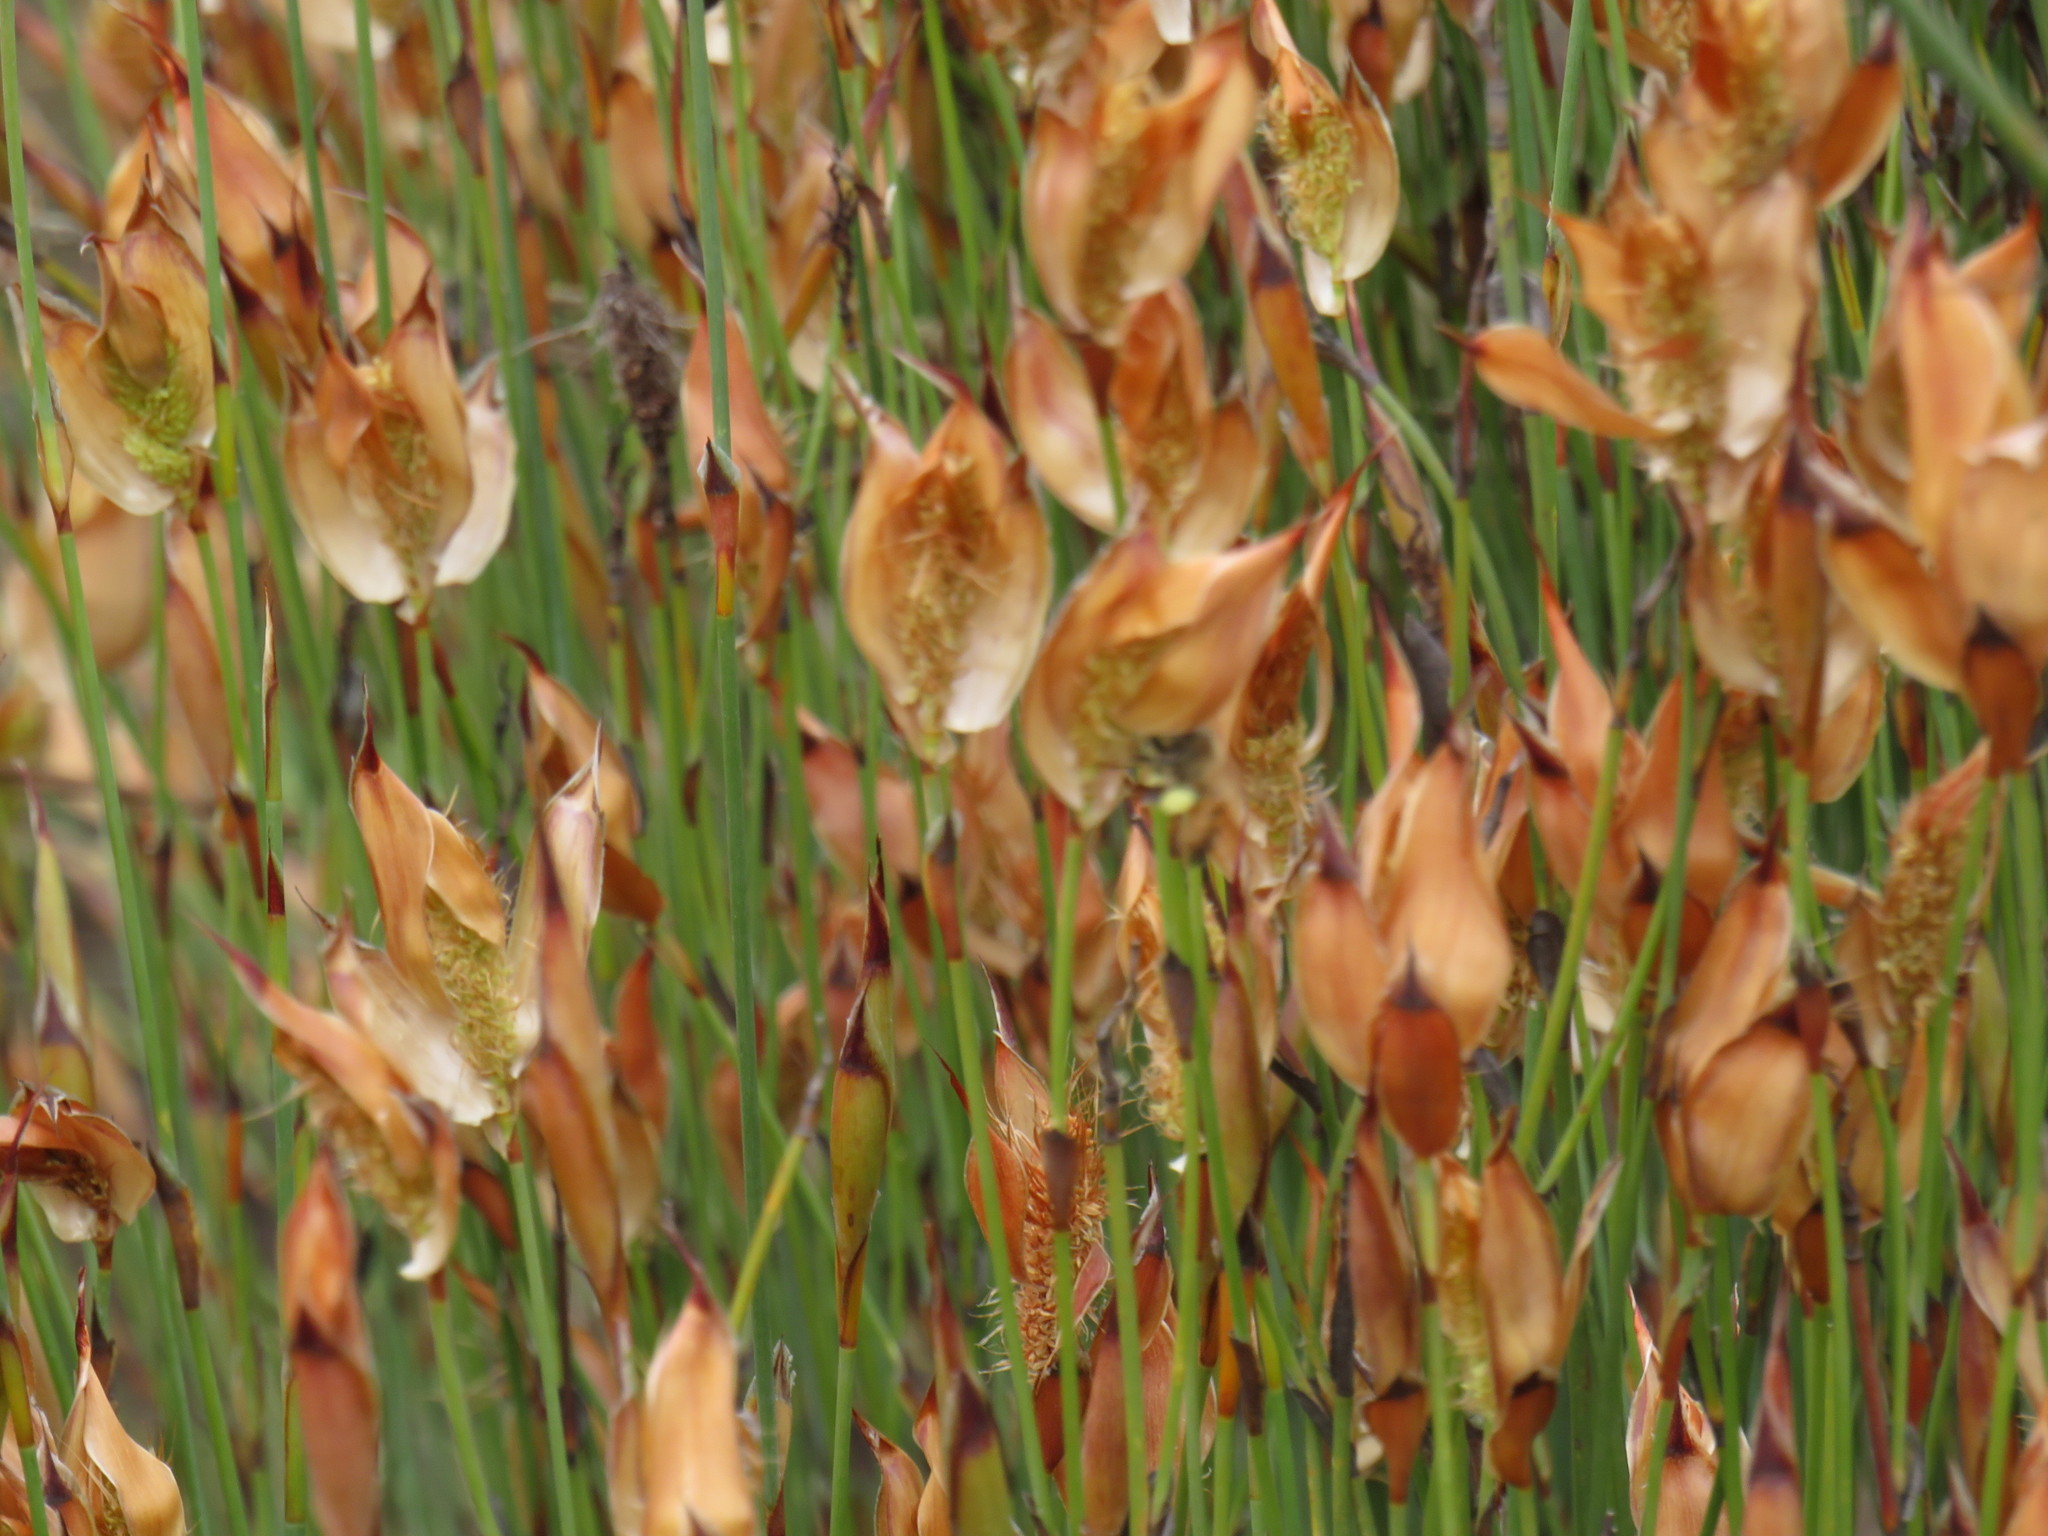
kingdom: Animalia
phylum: Arthropoda
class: Insecta
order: Hymenoptera
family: Apidae
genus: Apis
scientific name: Apis mellifera
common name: Honey bee
